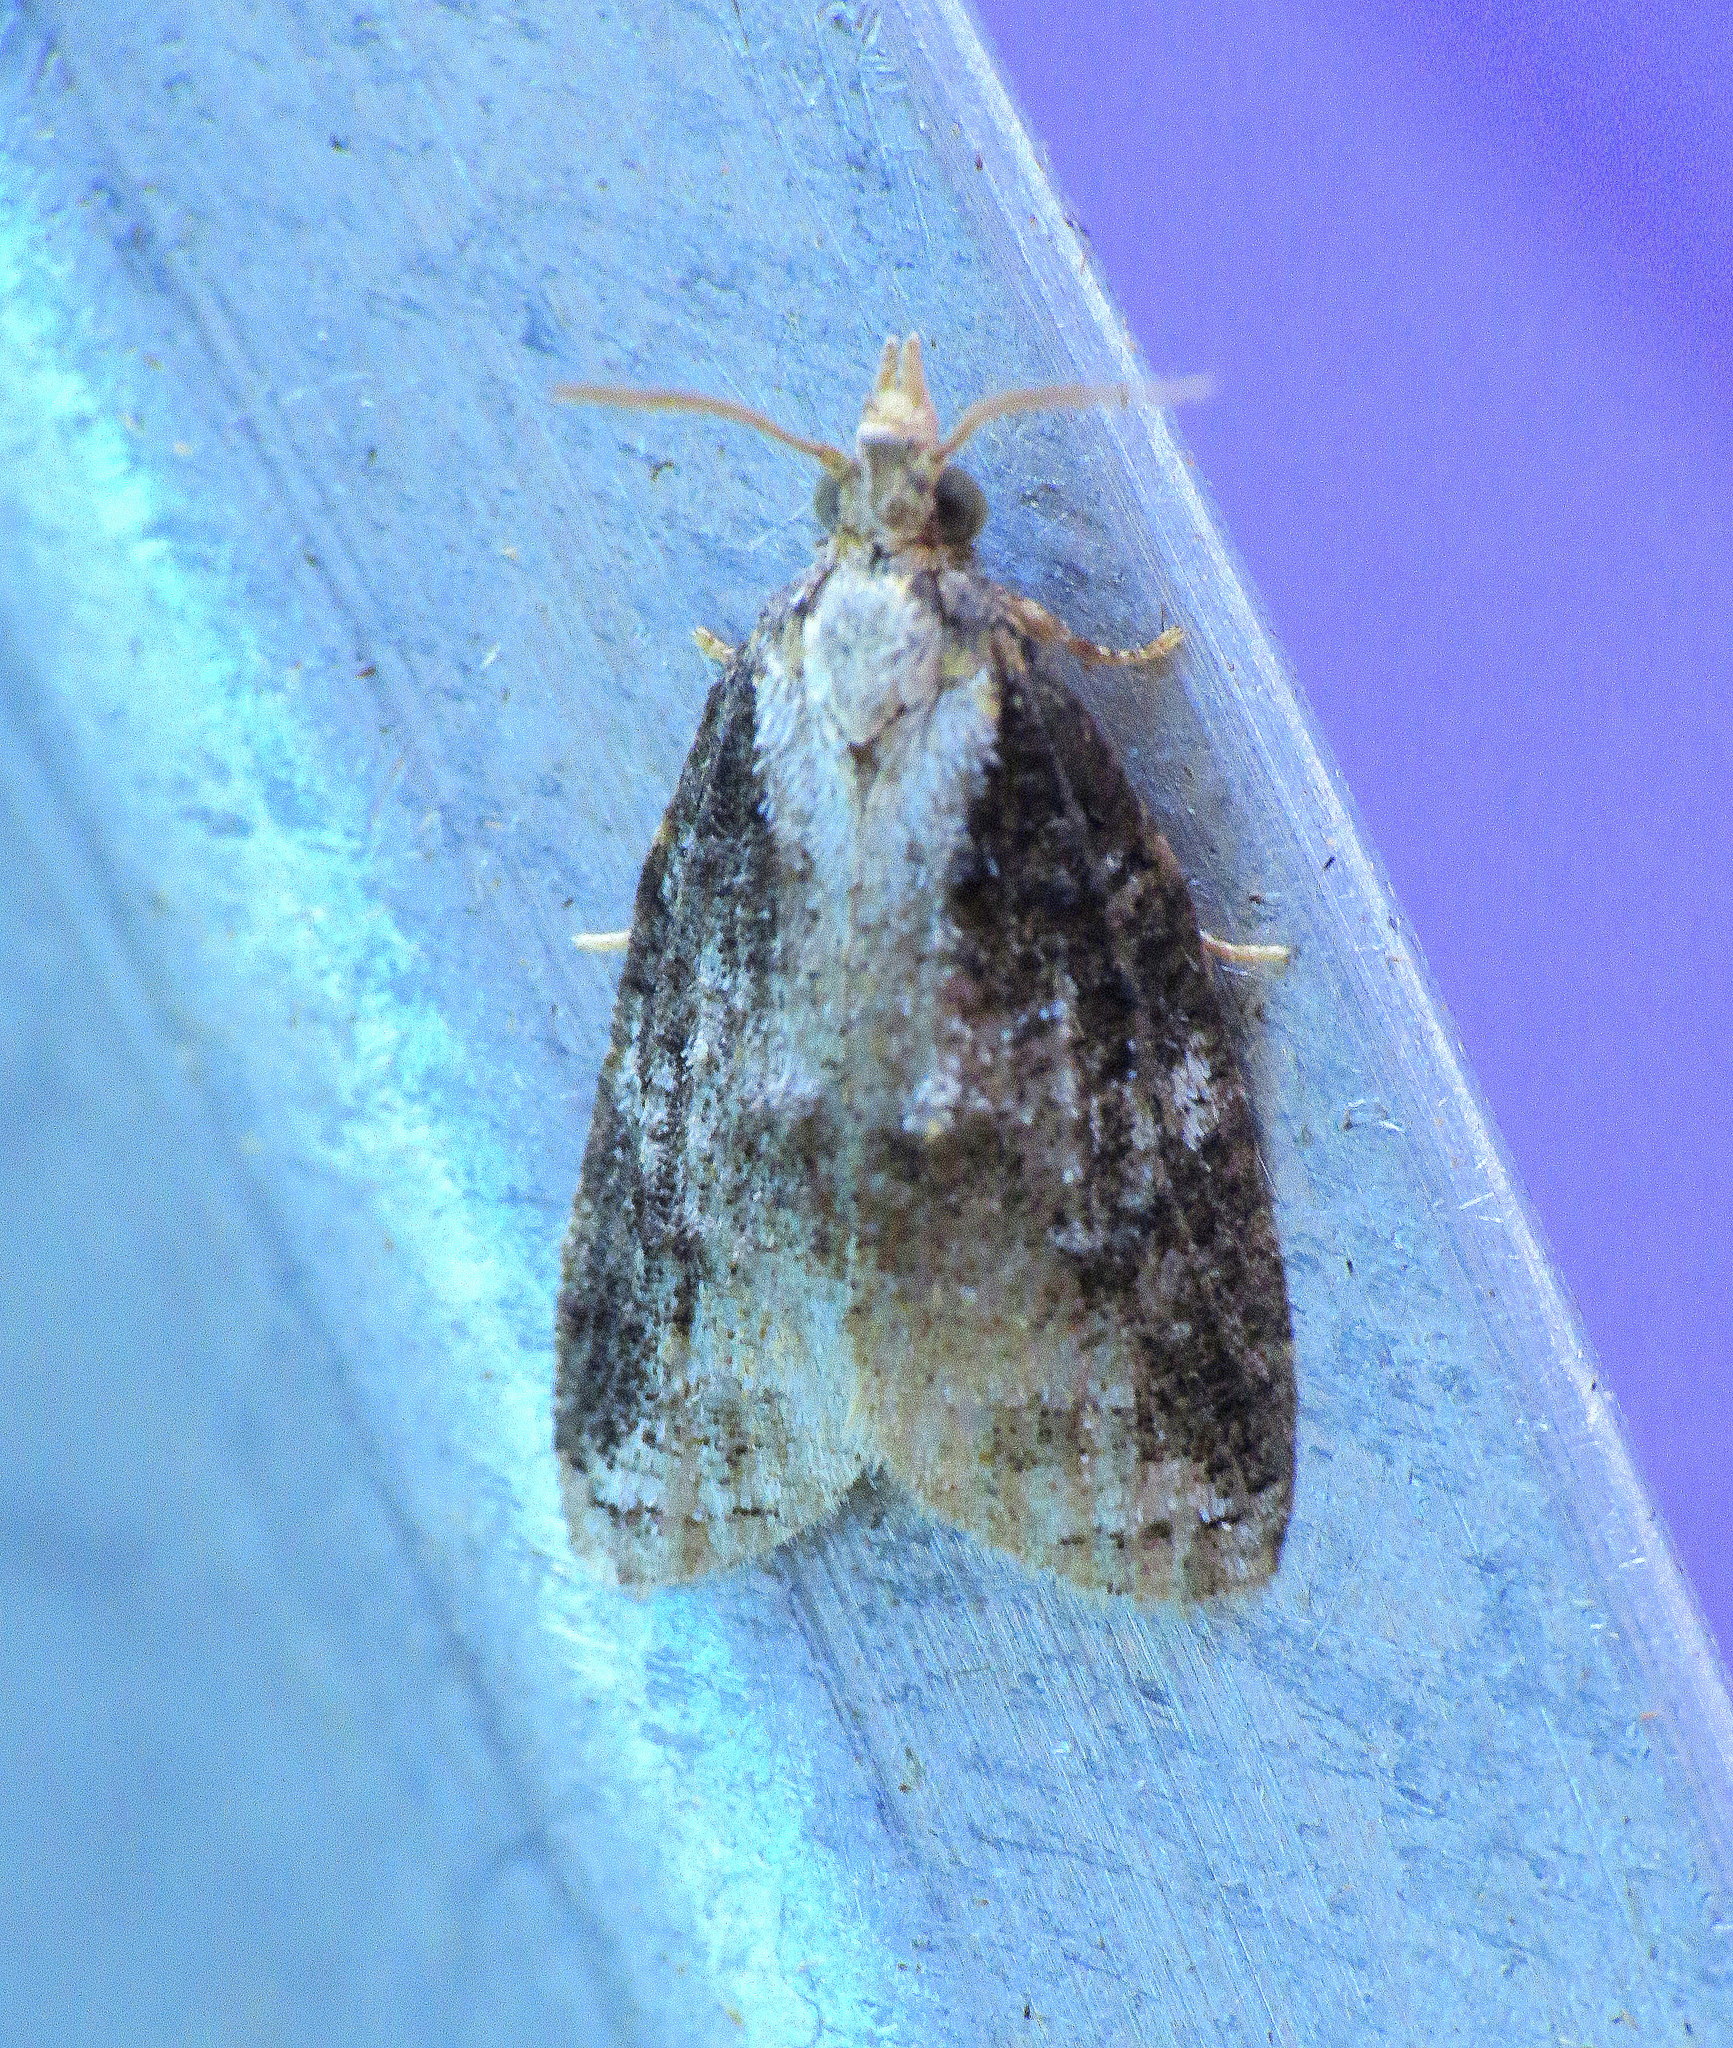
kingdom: Animalia
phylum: Arthropoda
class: Insecta
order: Lepidoptera
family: Tortricidae
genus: Platynota
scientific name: Platynota exasperatana
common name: Exasperating platynota moth
